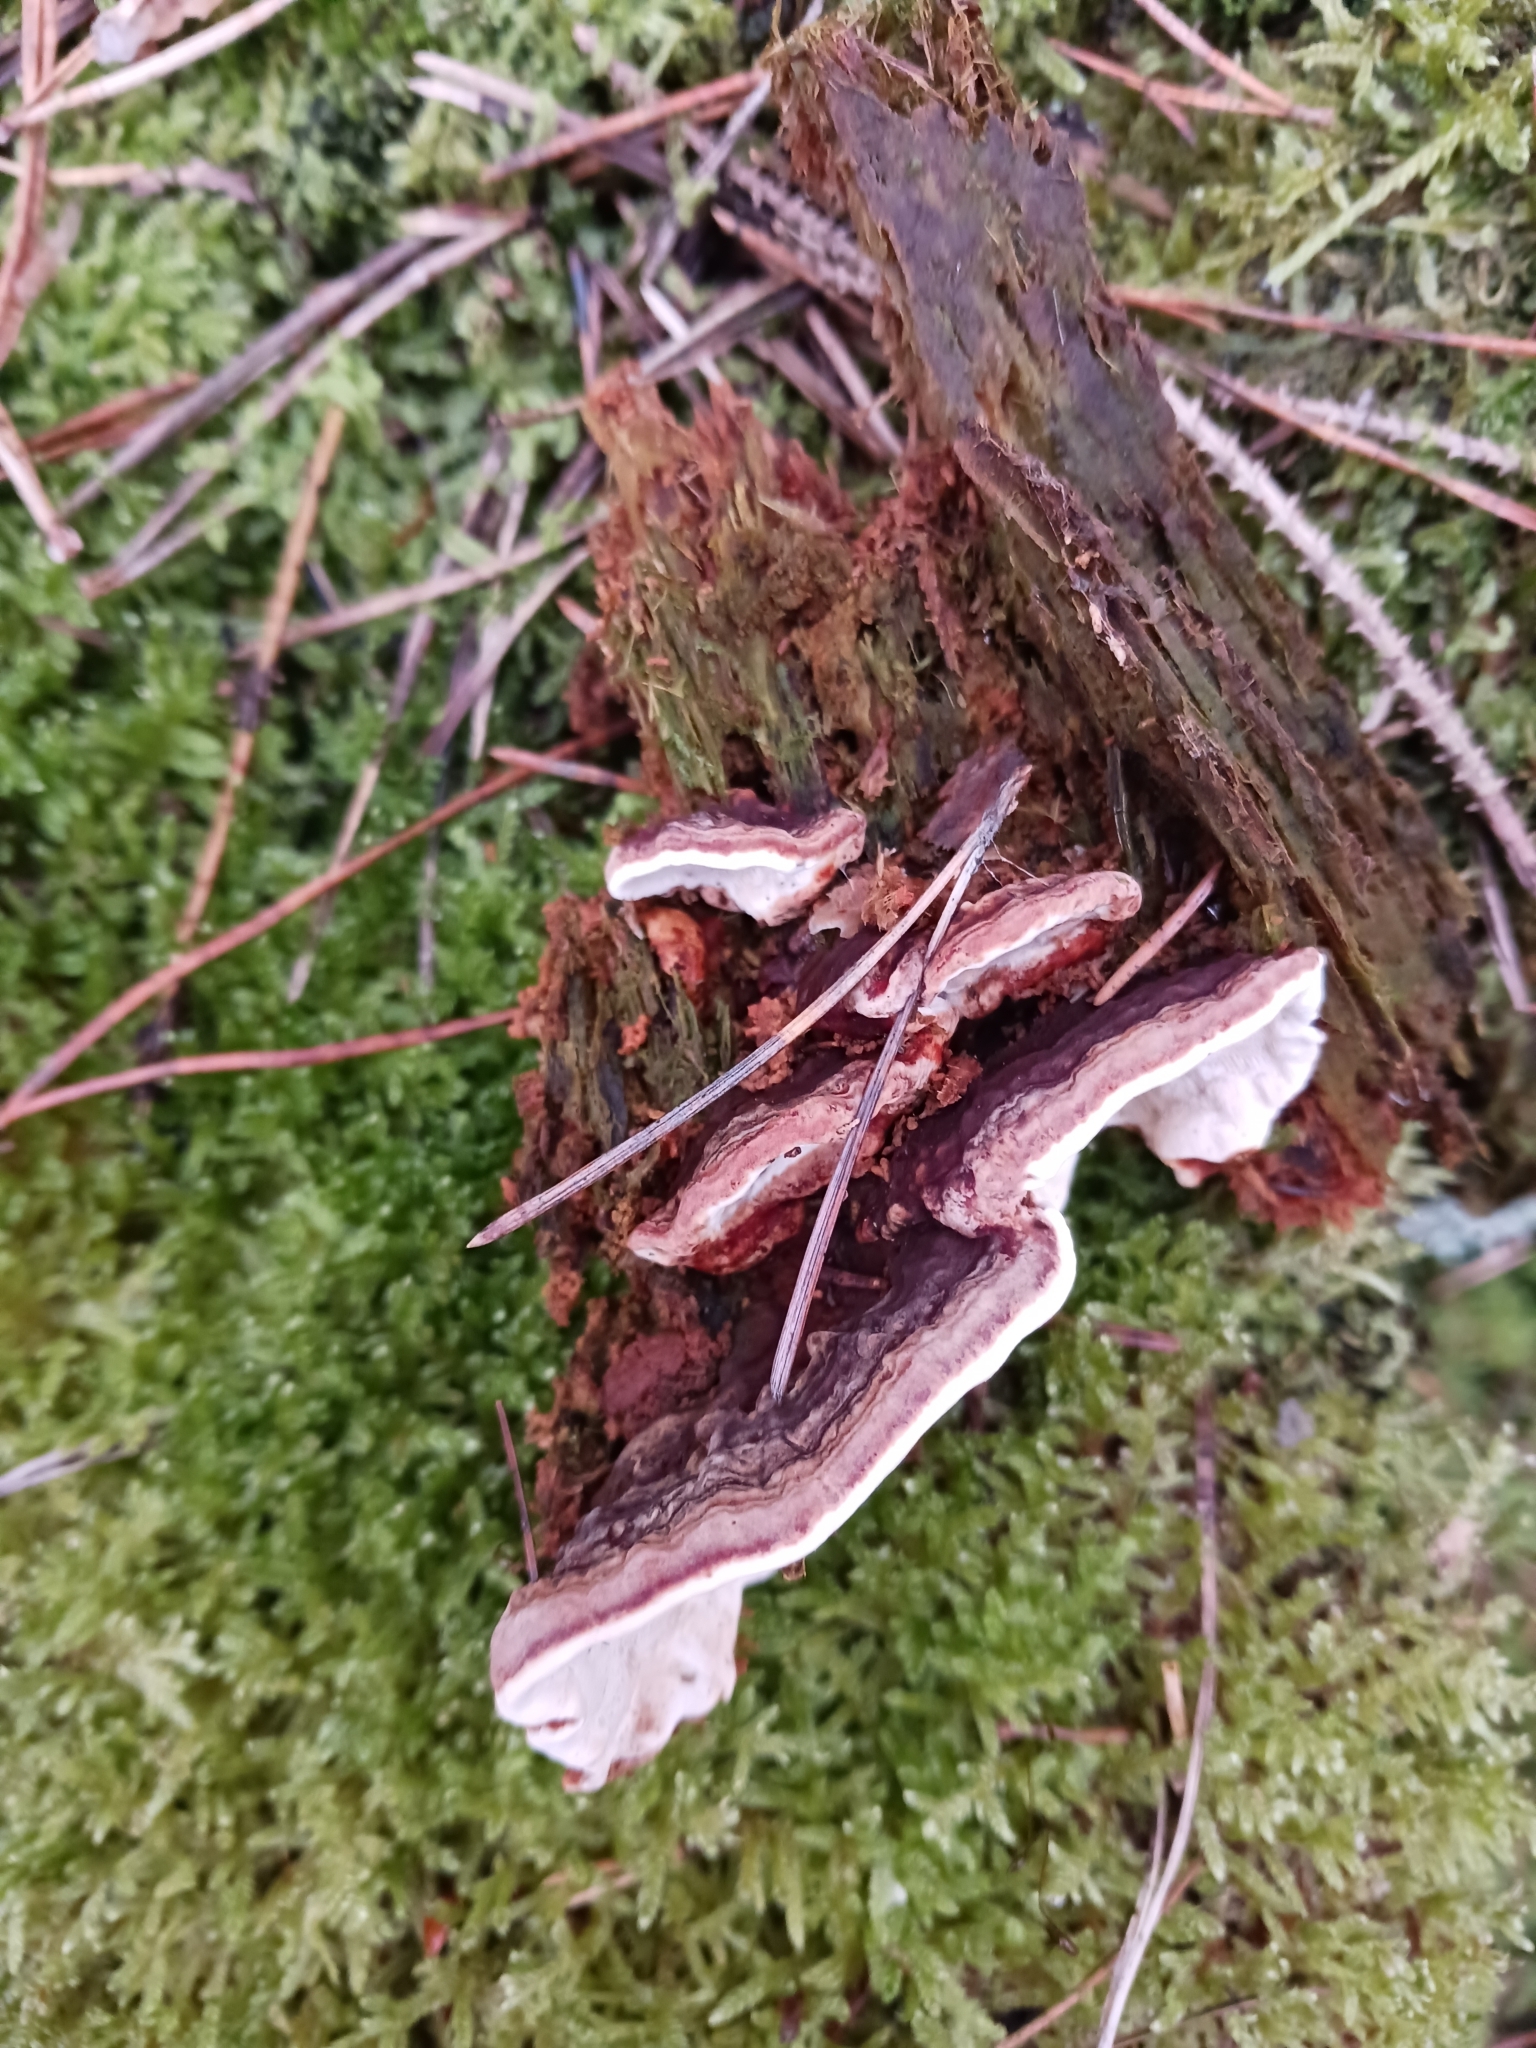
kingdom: Fungi
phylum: Basidiomycota
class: Agaricomycetes
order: Russulales
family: Bondarzewiaceae
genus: Heterobasidion
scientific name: Heterobasidion parviporum
